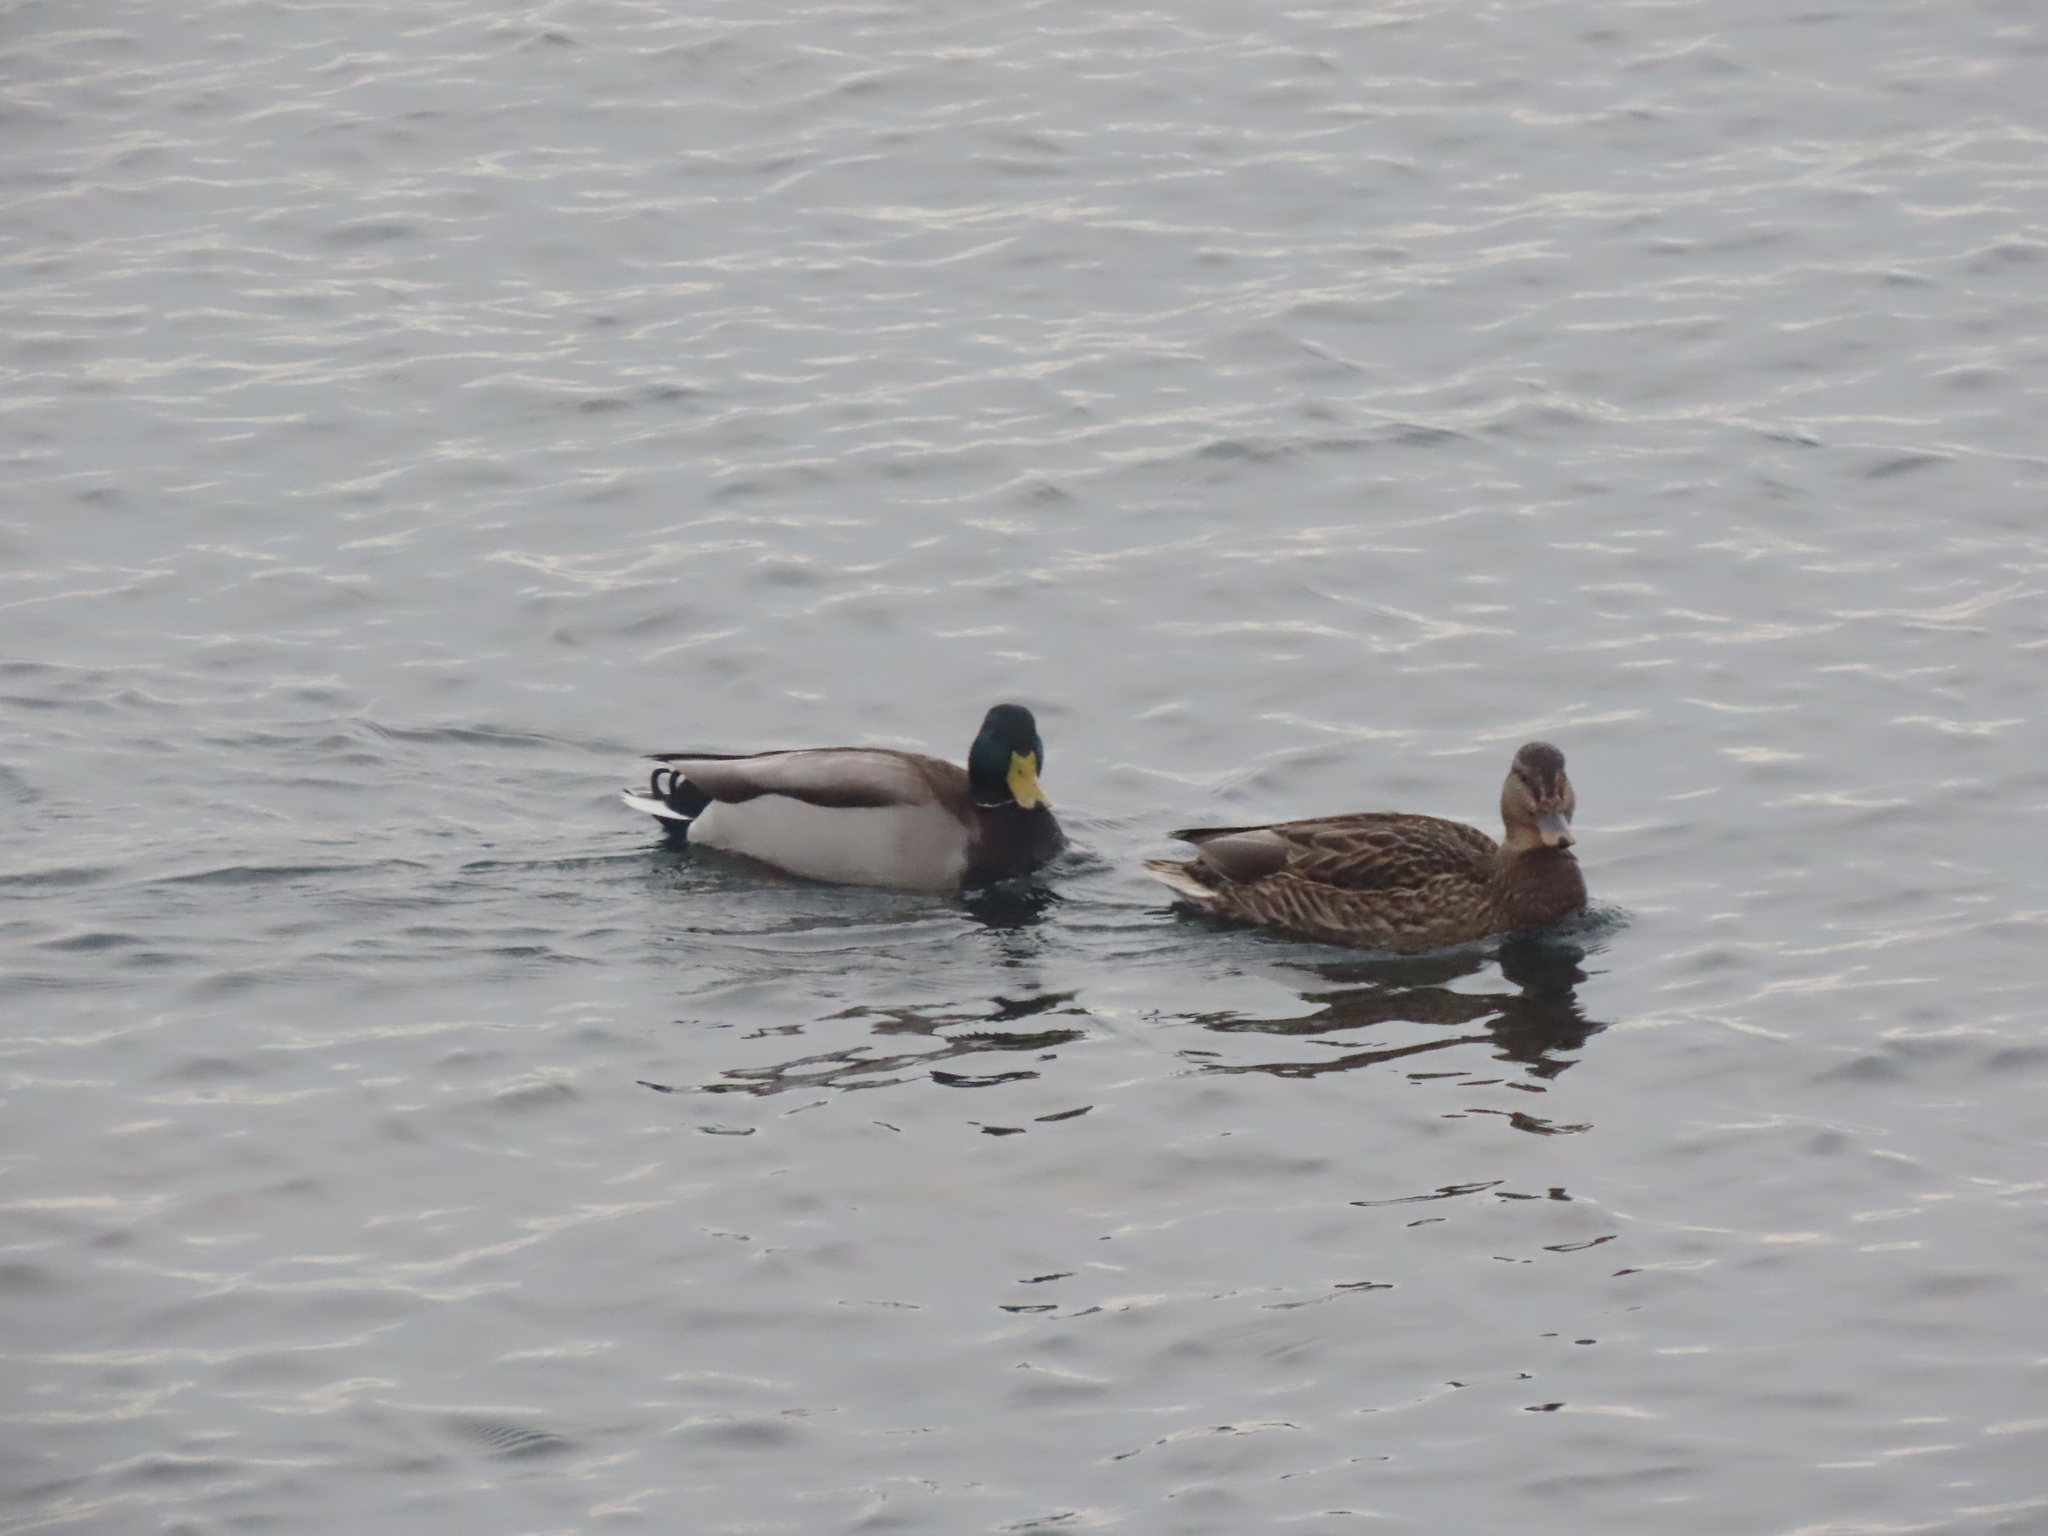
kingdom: Animalia
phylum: Chordata
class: Aves
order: Anseriformes
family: Anatidae
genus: Anas
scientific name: Anas platyrhynchos
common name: Mallard
